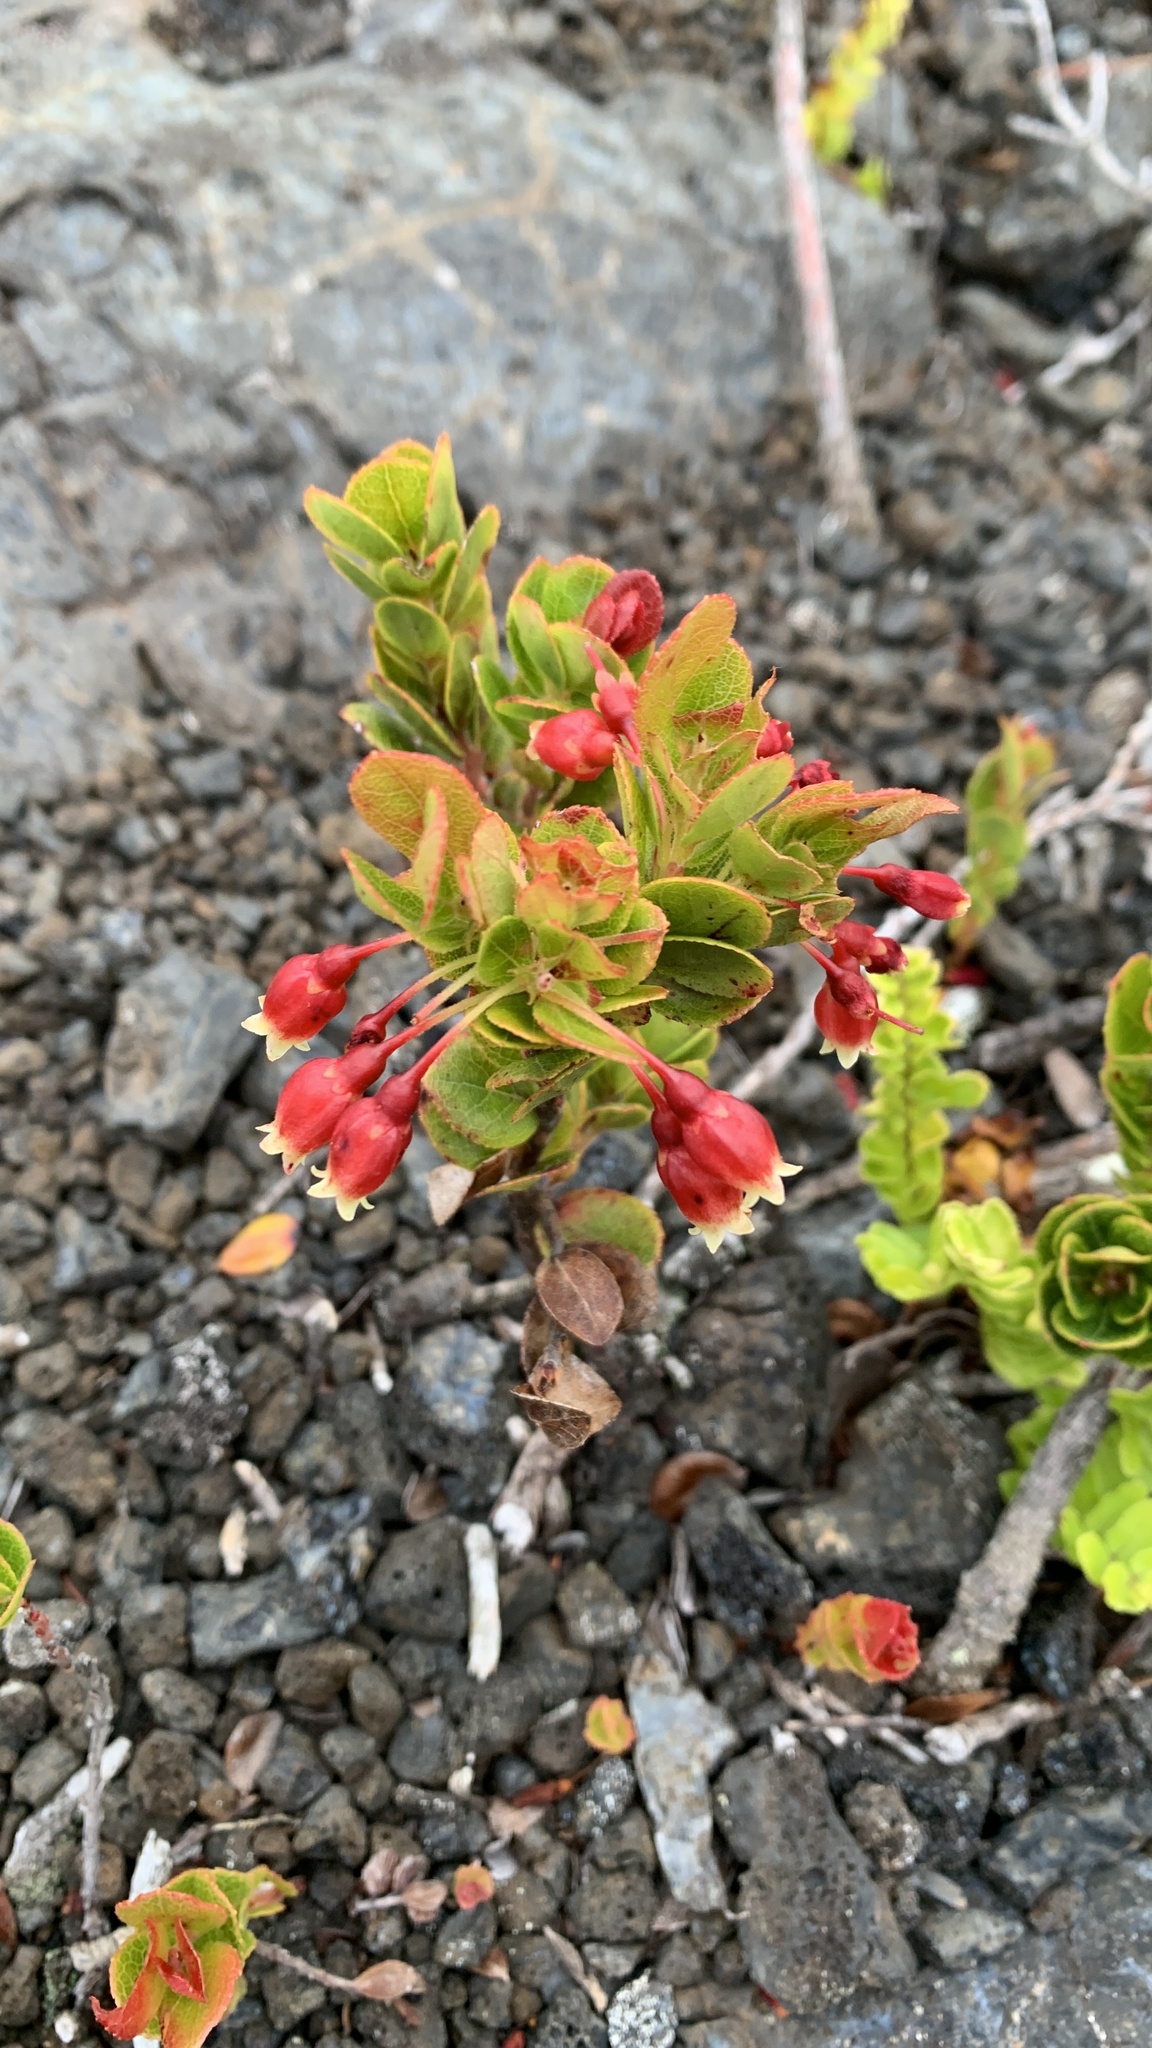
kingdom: Plantae
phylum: Tracheophyta
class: Magnoliopsida
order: Ericales
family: Ericaceae
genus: Vaccinium
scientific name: Vaccinium reticulatum
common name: Ohelo
